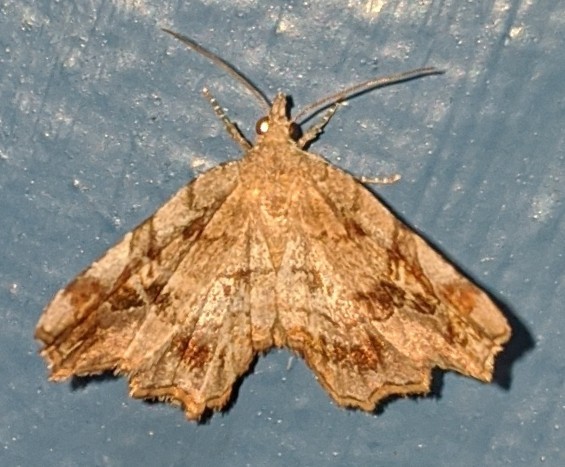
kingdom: Animalia
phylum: Arthropoda
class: Insecta
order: Lepidoptera
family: Erebidae
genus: Pangrapta
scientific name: Pangrapta decoralis
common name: Decorated owlet
